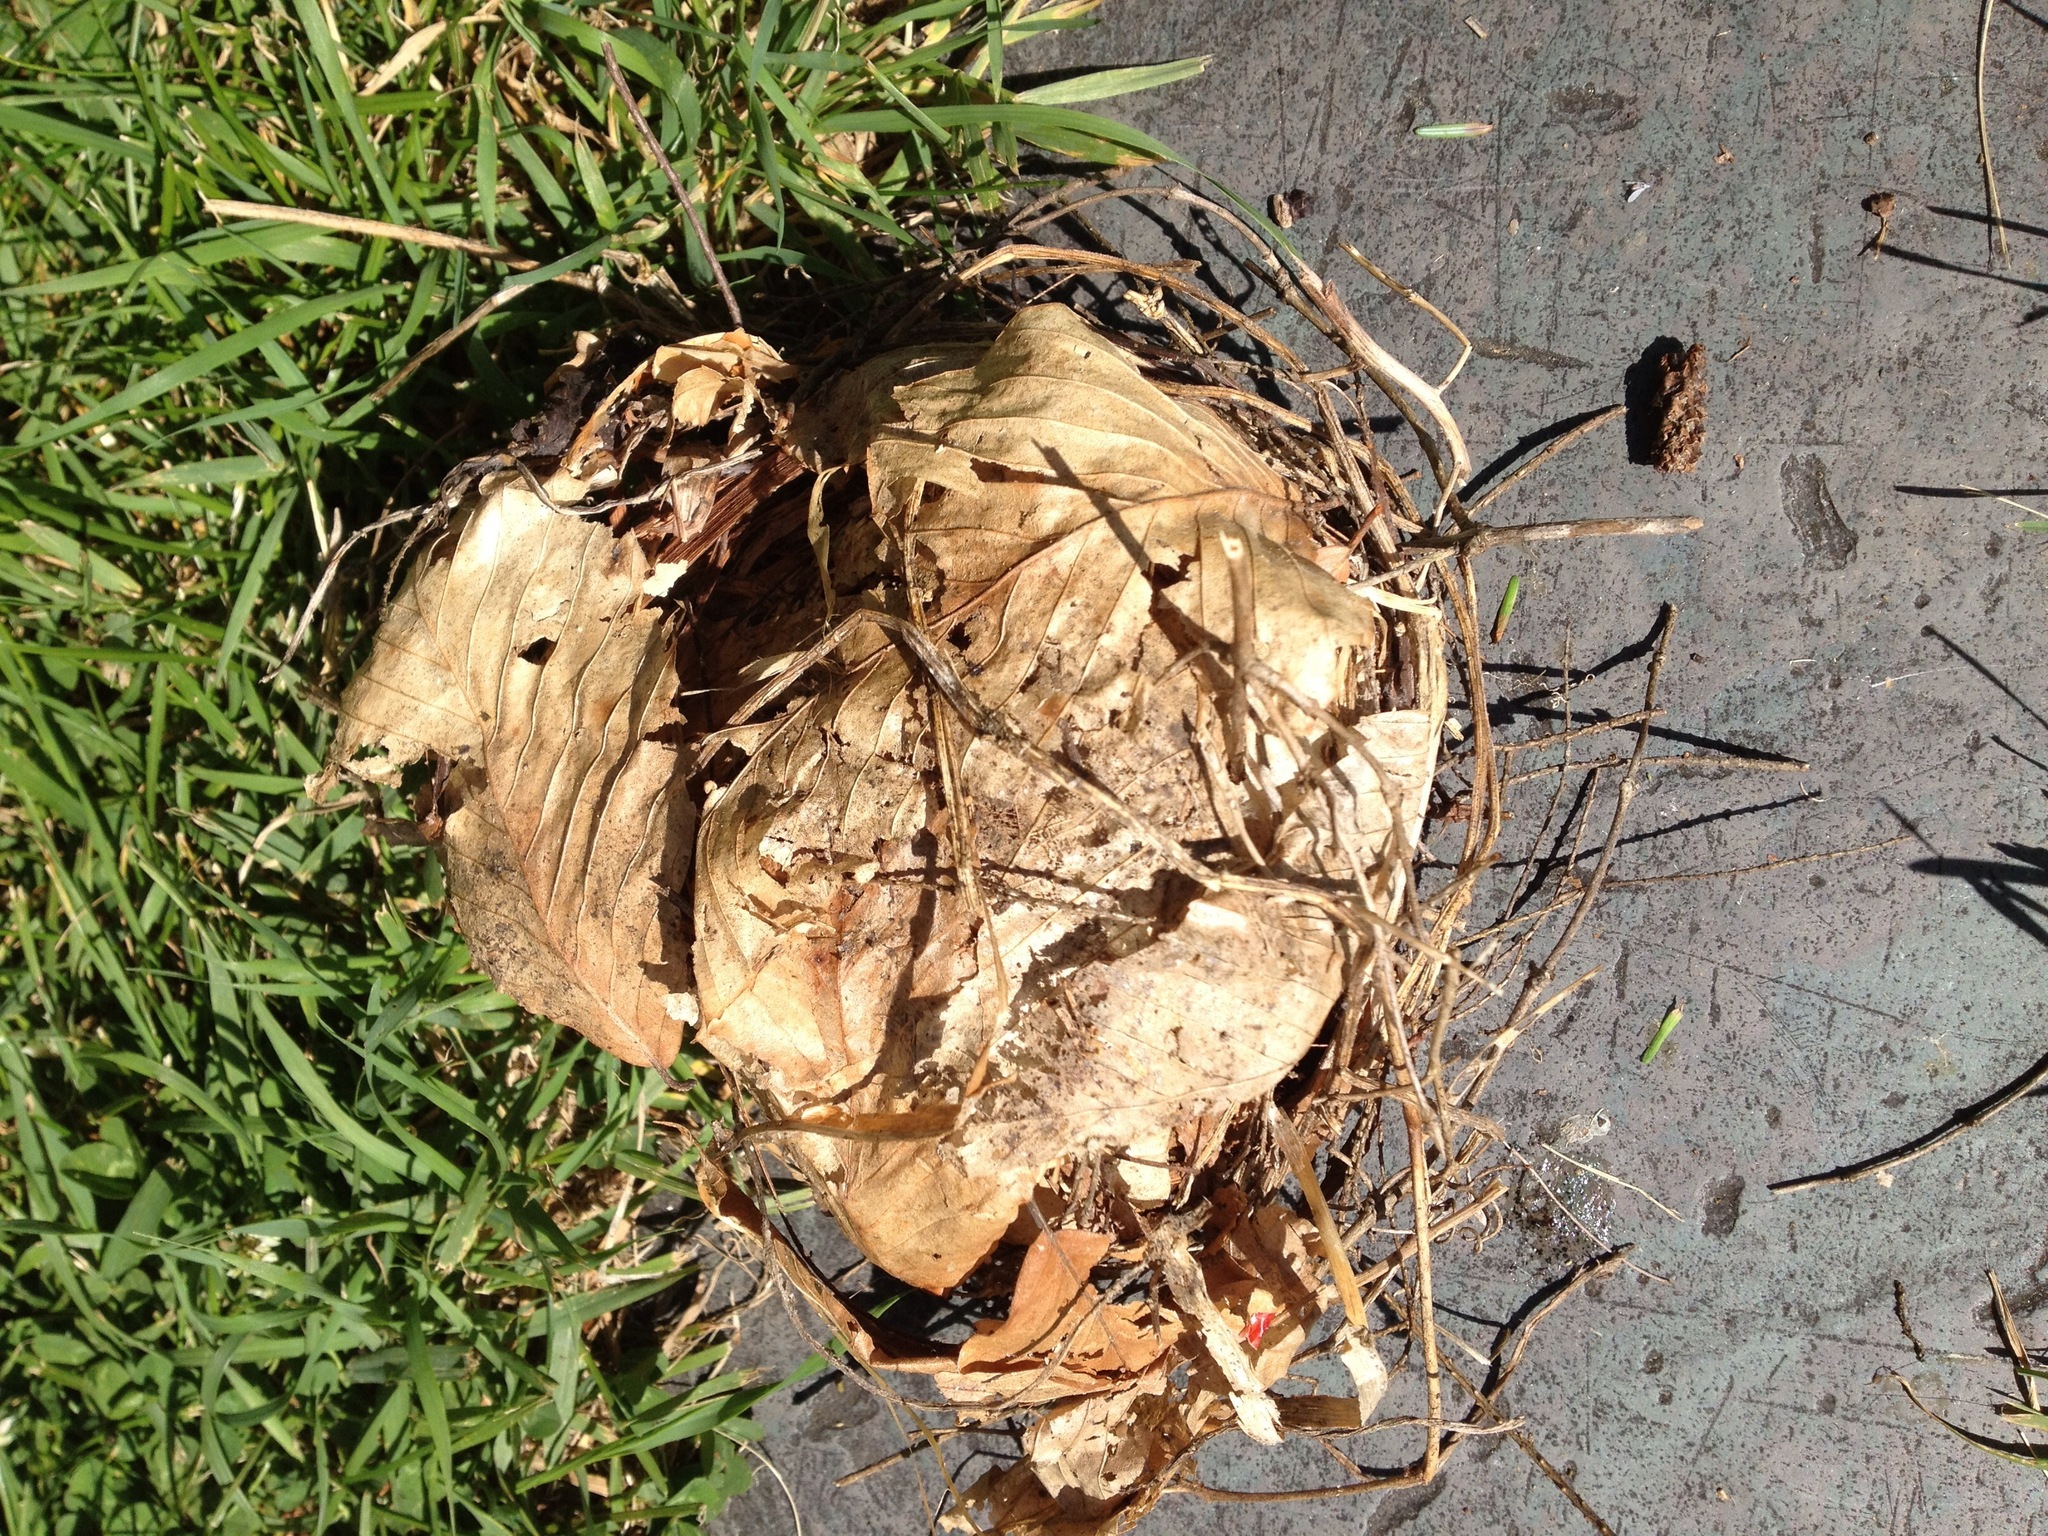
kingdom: Animalia
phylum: Chordata
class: Aves
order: Passeriformes
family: Cardinalidae
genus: Cardinalis
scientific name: Cardinalis cardinalis
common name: Northern cardinal
